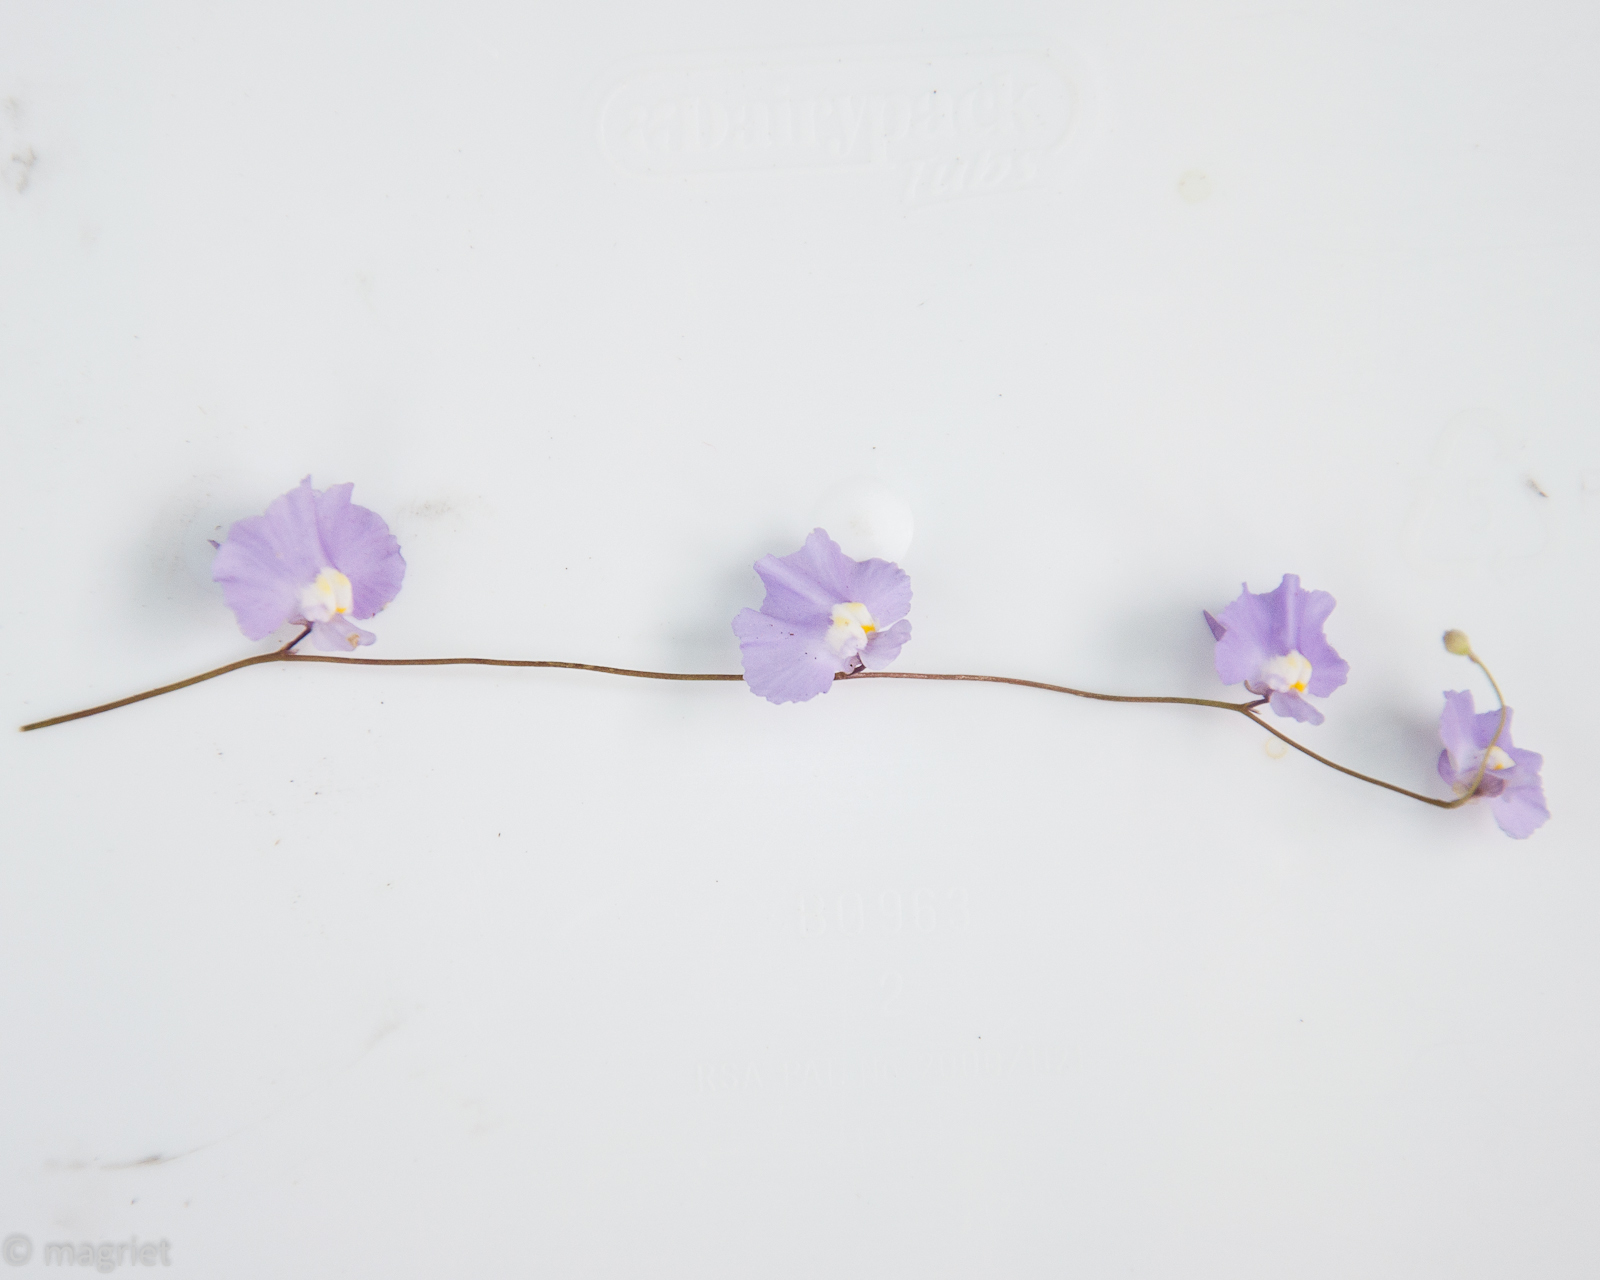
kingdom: Plantae
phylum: Tracheophyta
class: Magnoliopsida
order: Lamiales
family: Lentibulariaceae
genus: Utricularia
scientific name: Utricularia bisquamata
